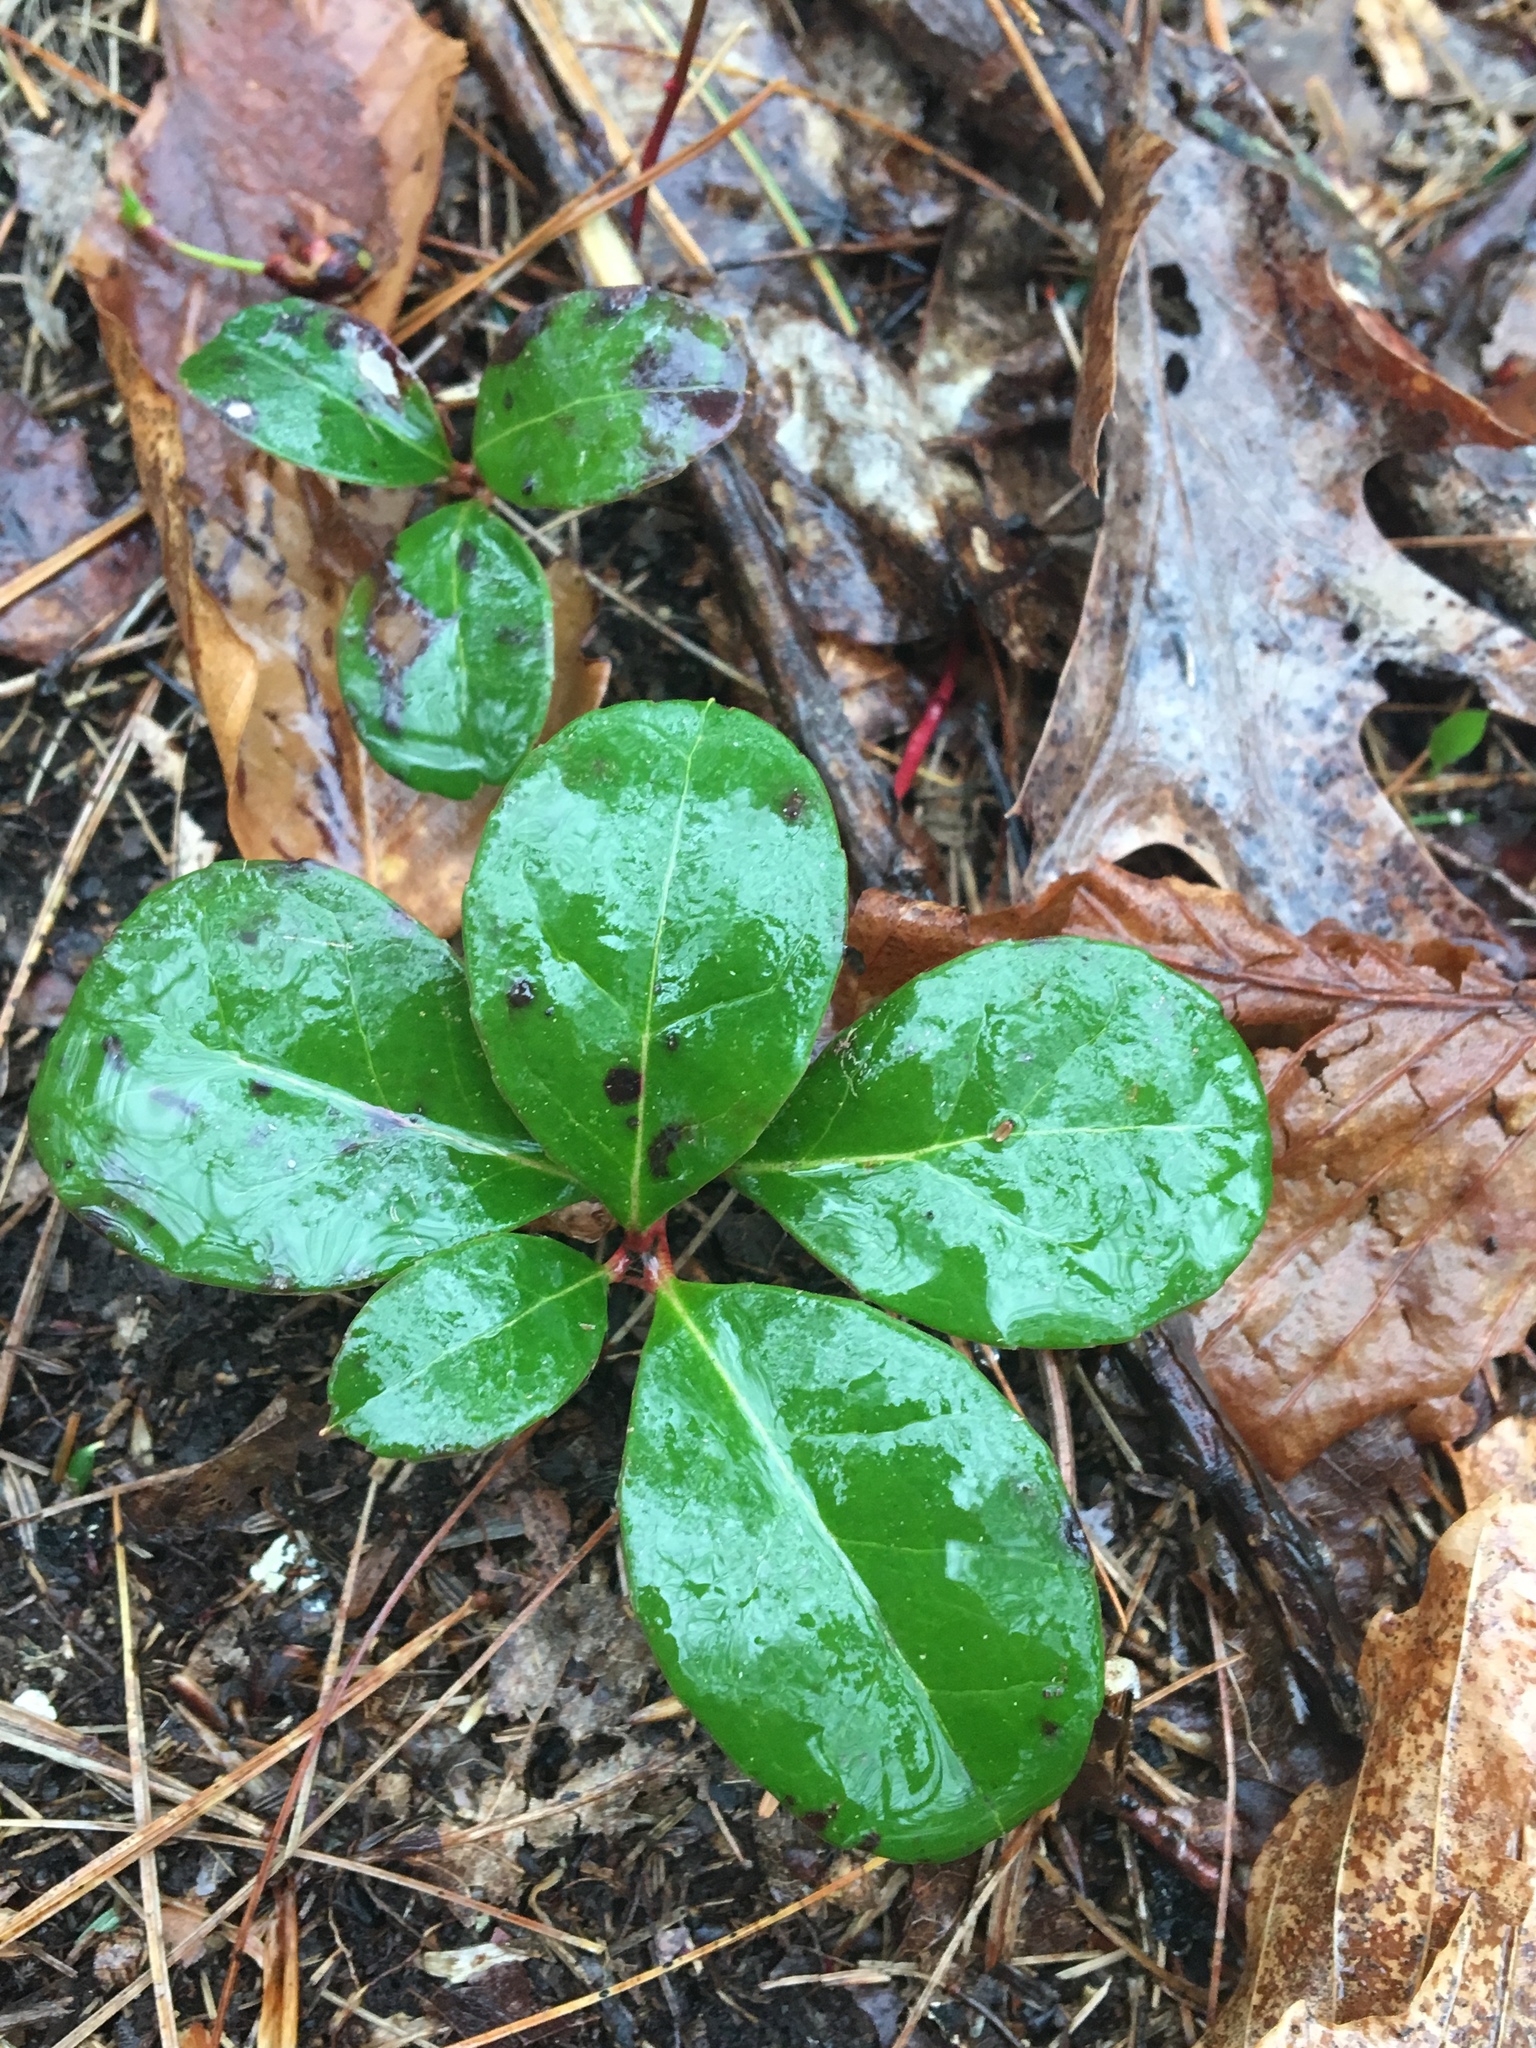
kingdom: Plantae
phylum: Tracheophyta
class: Magnoliopsida
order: Ericales
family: Ericaceae
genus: Gaultheria
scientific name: Gaultheria procumbens
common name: Checkerberry
